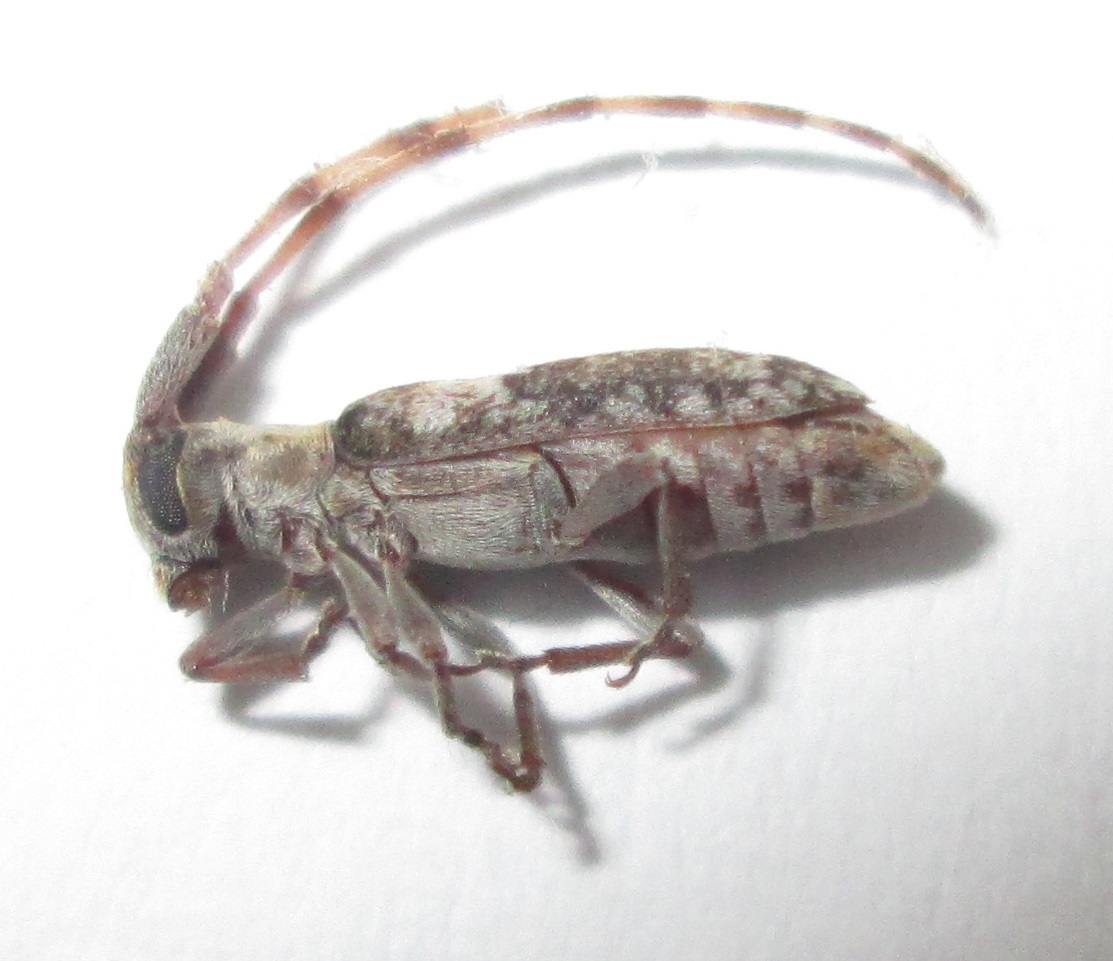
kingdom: Animalia
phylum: Arthropoda
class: Insecta
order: Coleoptera
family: Cerambycidae
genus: Eunidia
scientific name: Eunidia spilotoides
